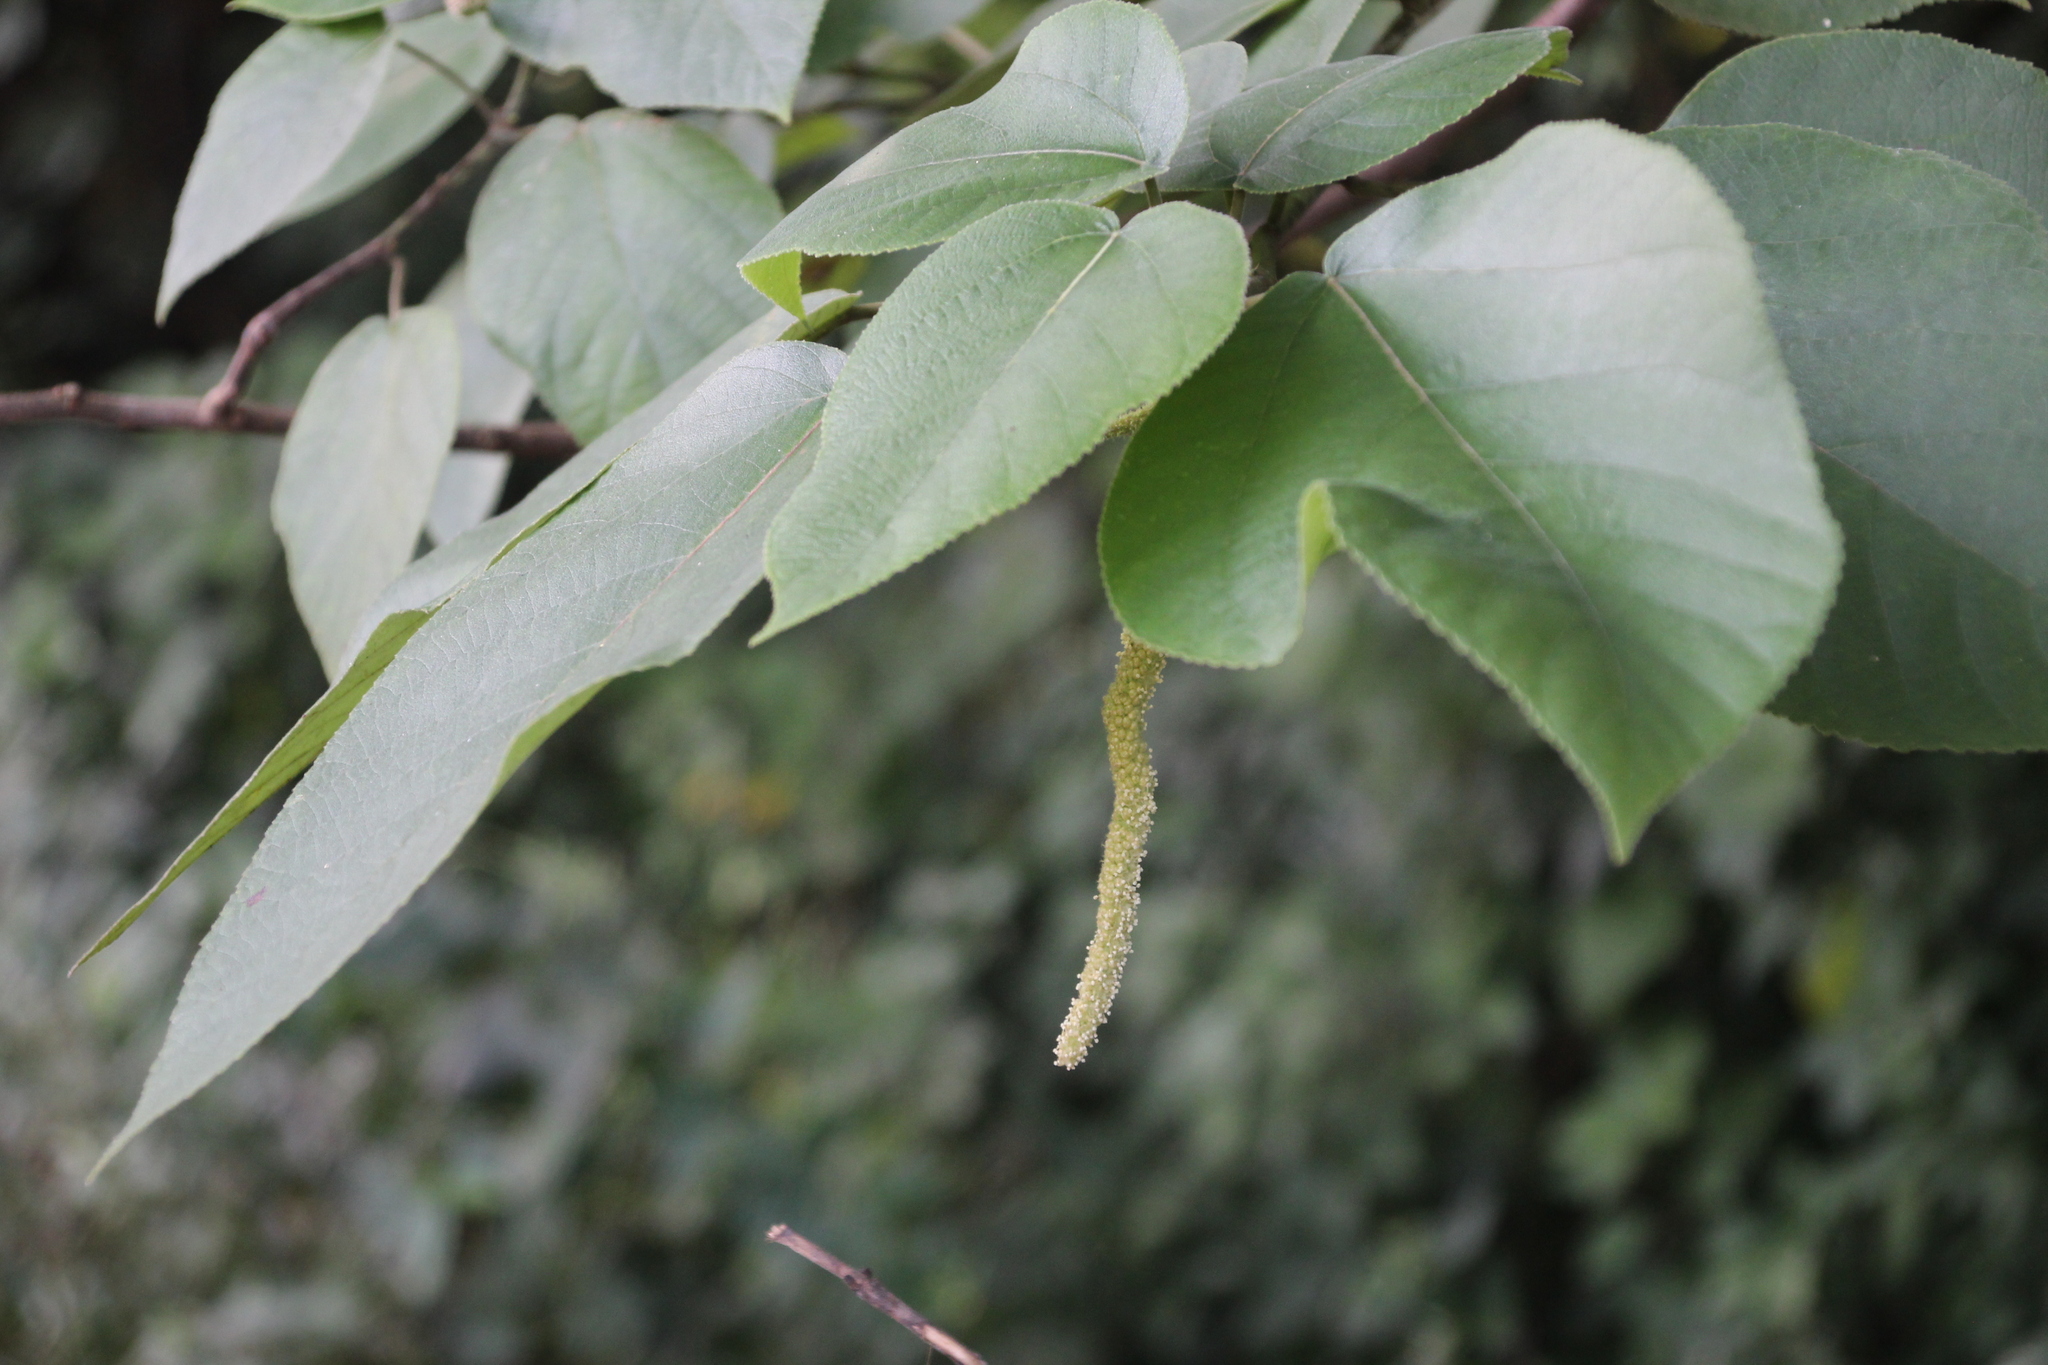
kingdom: Plantae
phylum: Tracheophyta
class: Magnoliopsida
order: Rosales
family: Moraceae
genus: Broussonetia
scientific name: Broussonetia papyrifera
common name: Paper mulberry
